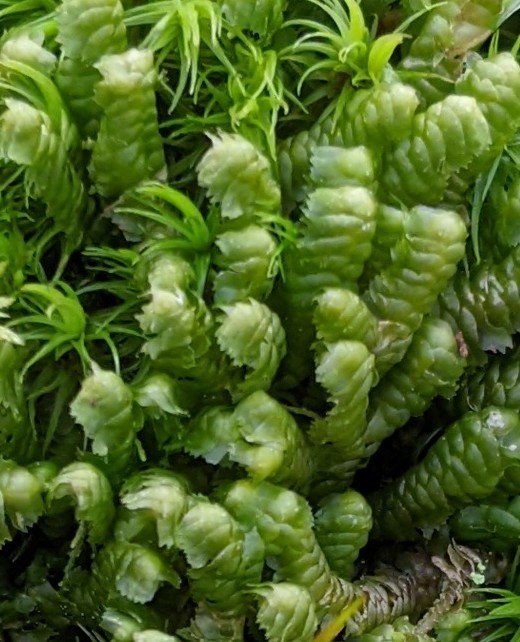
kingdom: Plantae
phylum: Marchantiophyta
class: Jungermanniopsida
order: Jungermanniales
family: Lepidoziaceae
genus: Bazzania
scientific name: Bazzania trilobata
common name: Three-lobed whipwort
